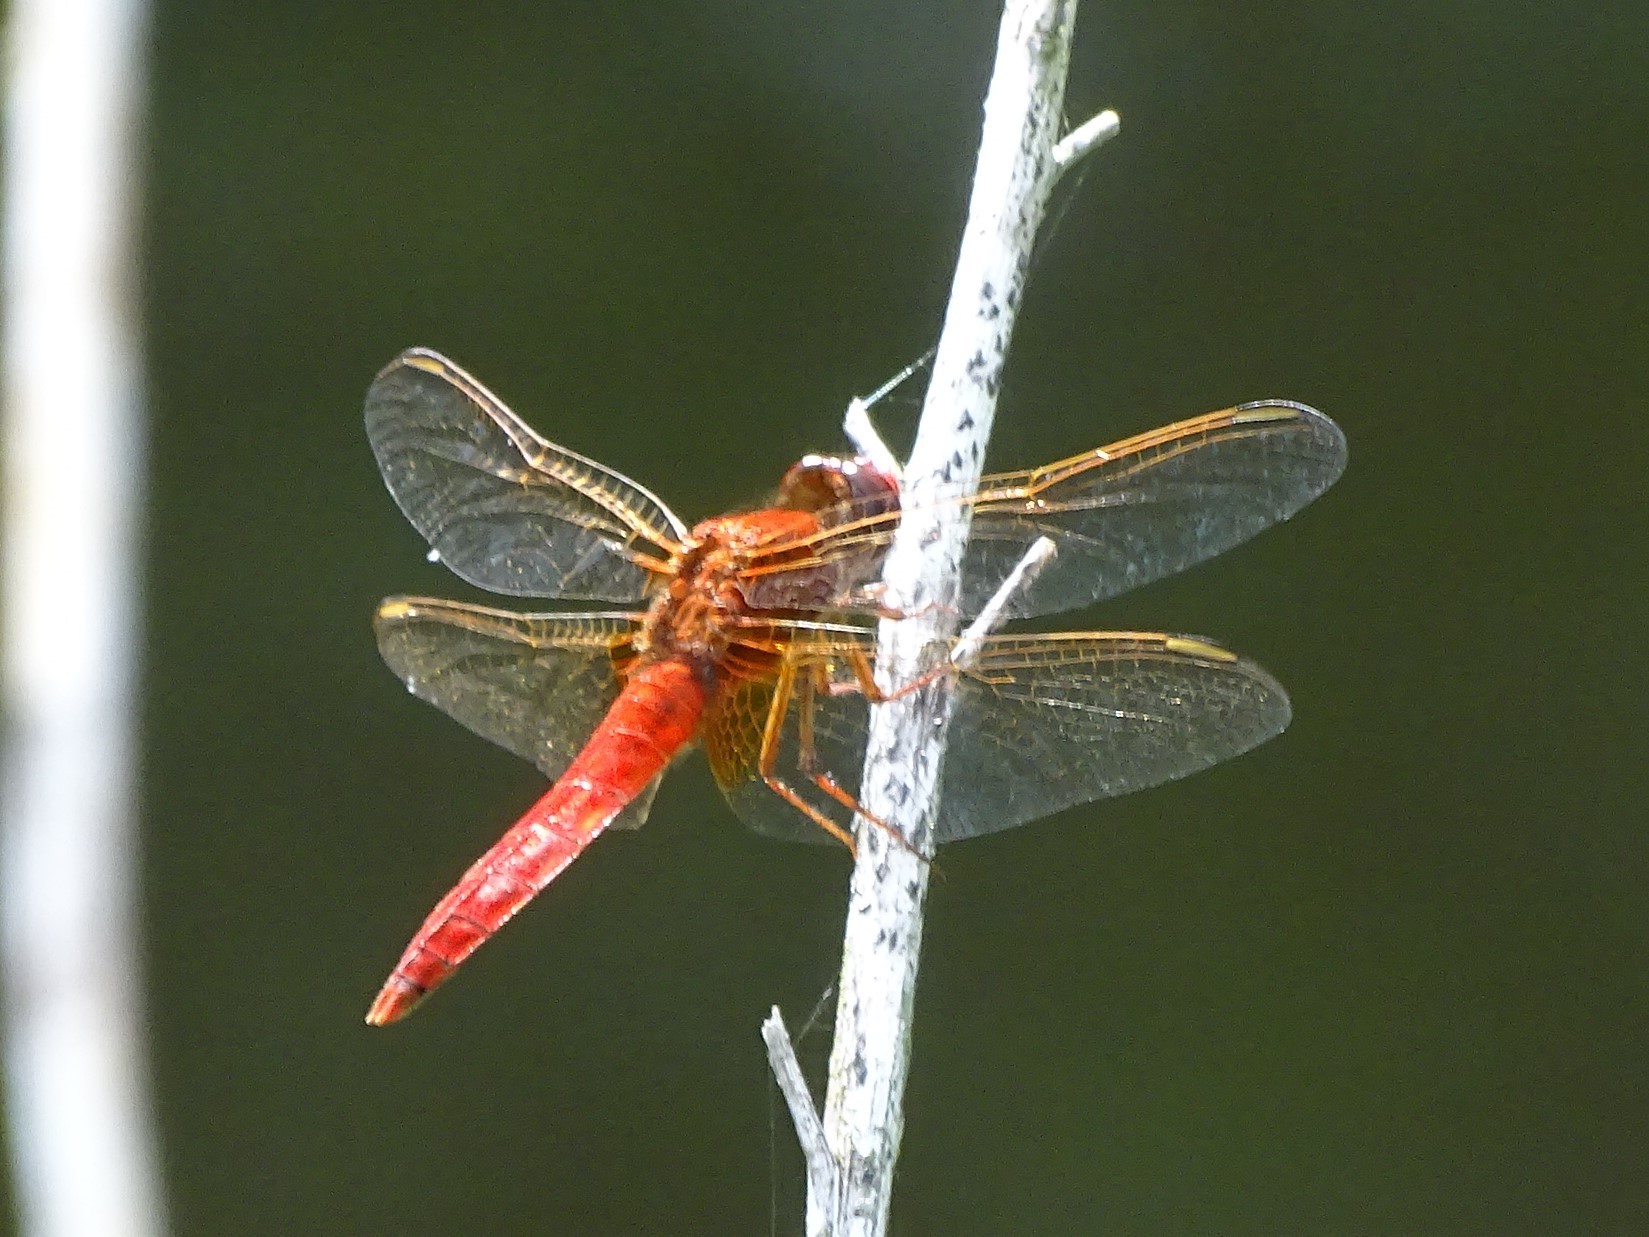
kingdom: Animalia
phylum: Arthropoda
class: Insecta
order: Odonata
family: Libellulidae
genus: Crocothemis
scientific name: Crocothemis erythraea
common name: Scarlet dragonfly
